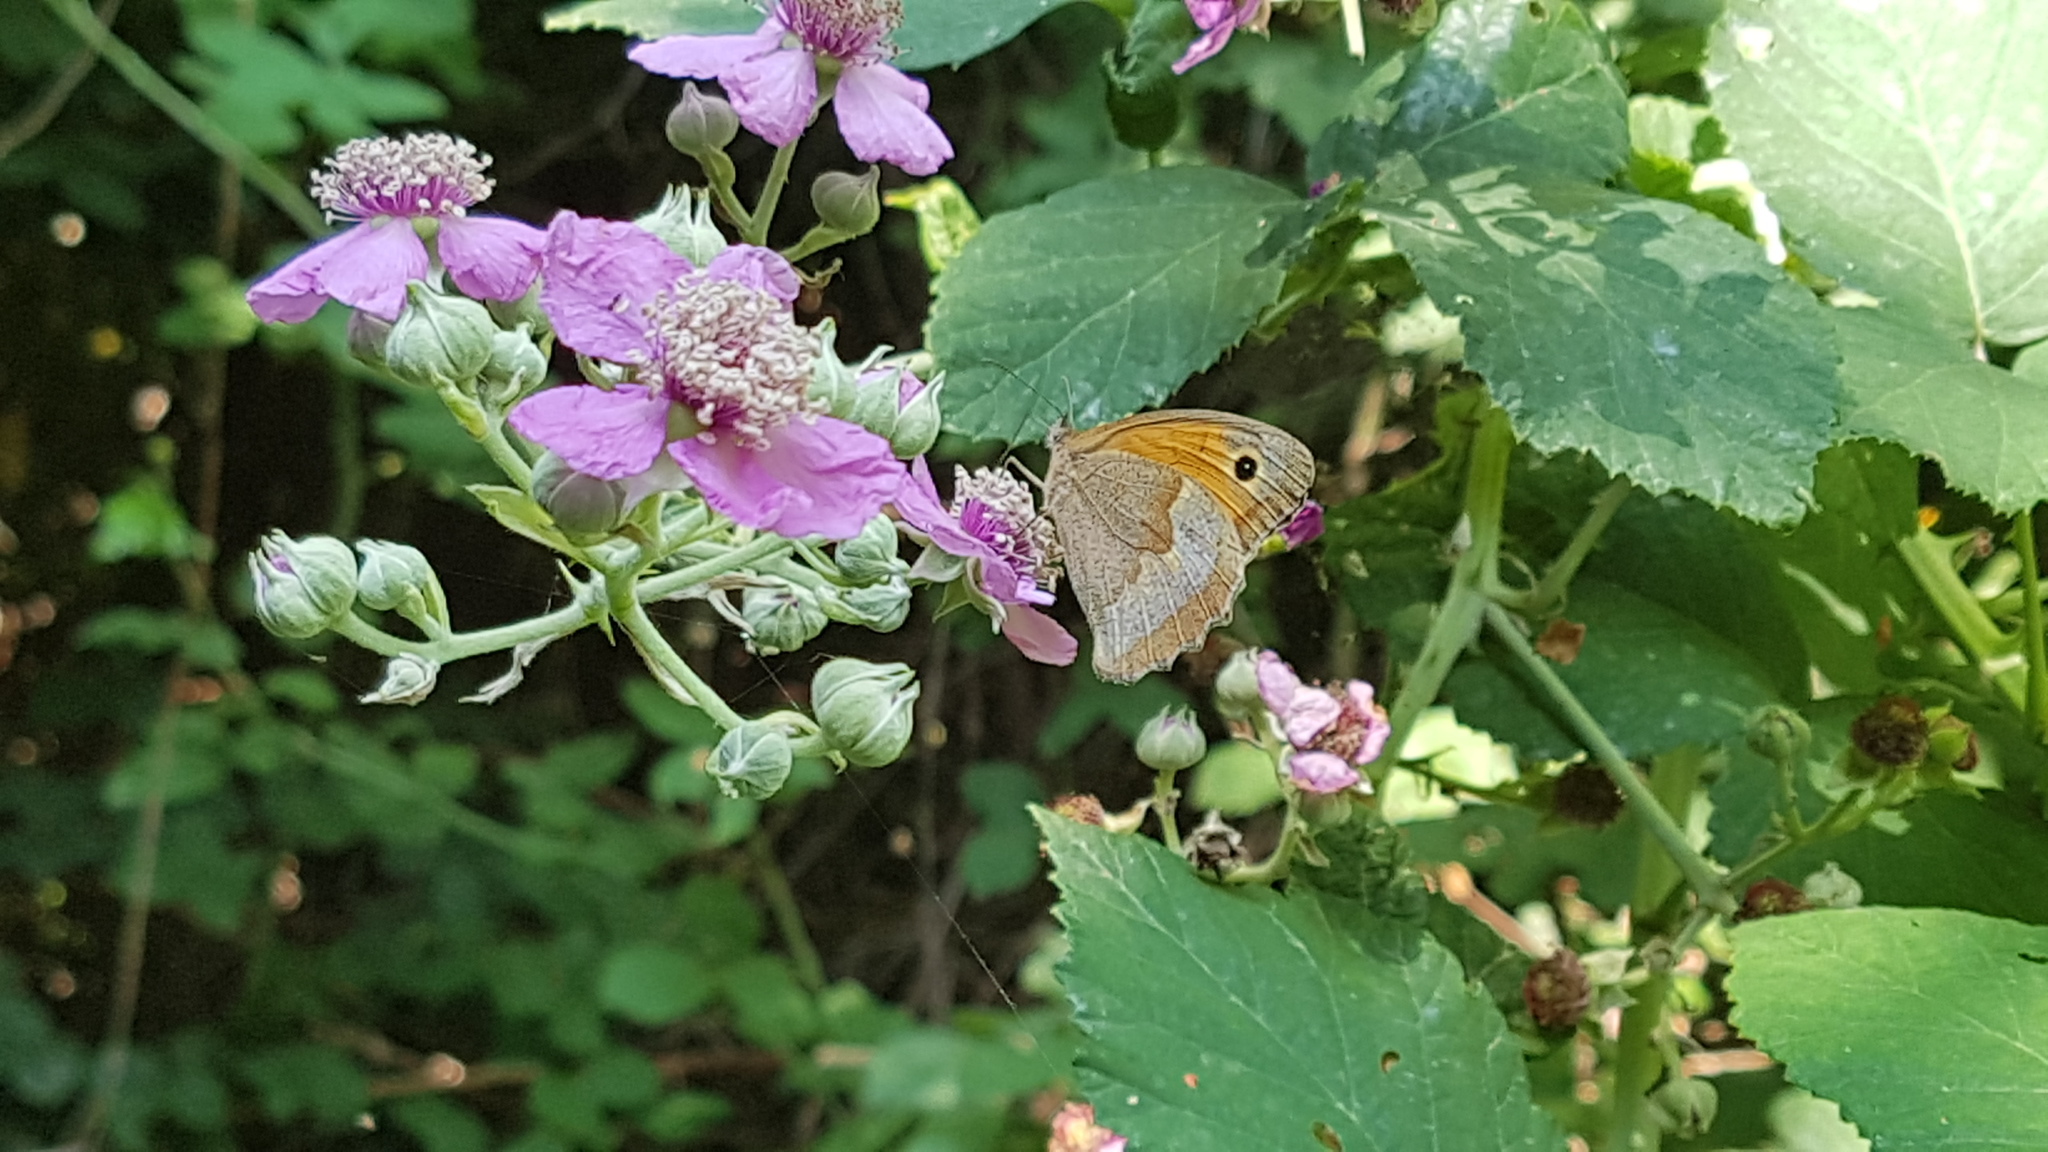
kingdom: Animalia
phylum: Arthropoda
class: Insecta
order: Lepidoptera
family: Nymphalidae
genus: Maniola
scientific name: Maniola jurtina
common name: Meadow brown
